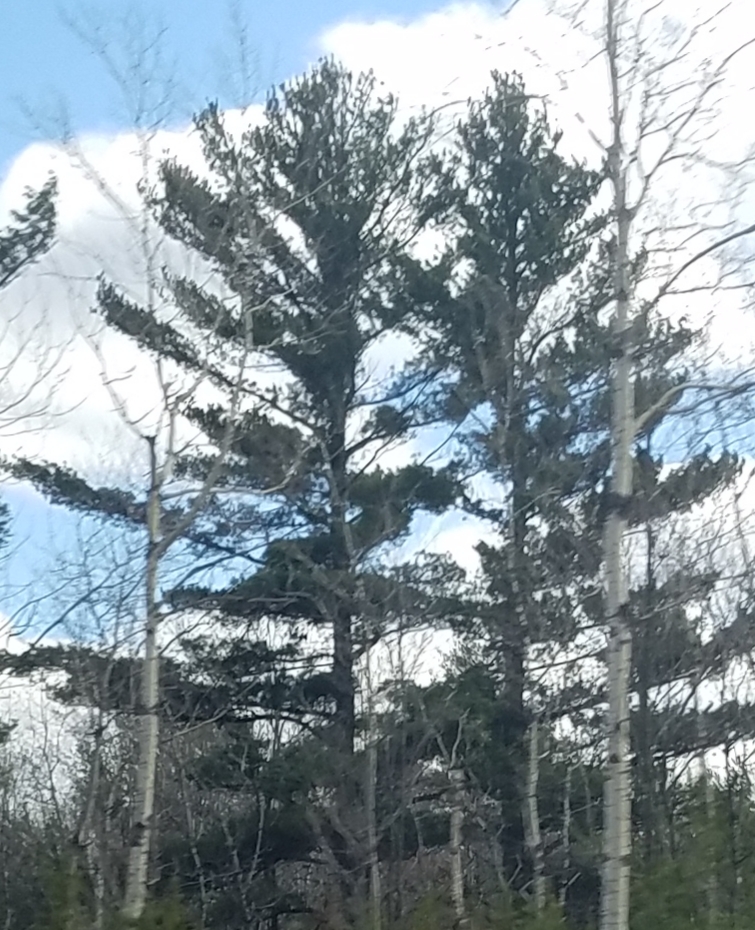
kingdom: Plantae
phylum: Tracheophyta
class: Pinopsida
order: Pinales
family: Pinaceae
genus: Pinus
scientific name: Pinus strobus
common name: Weymouth pine
